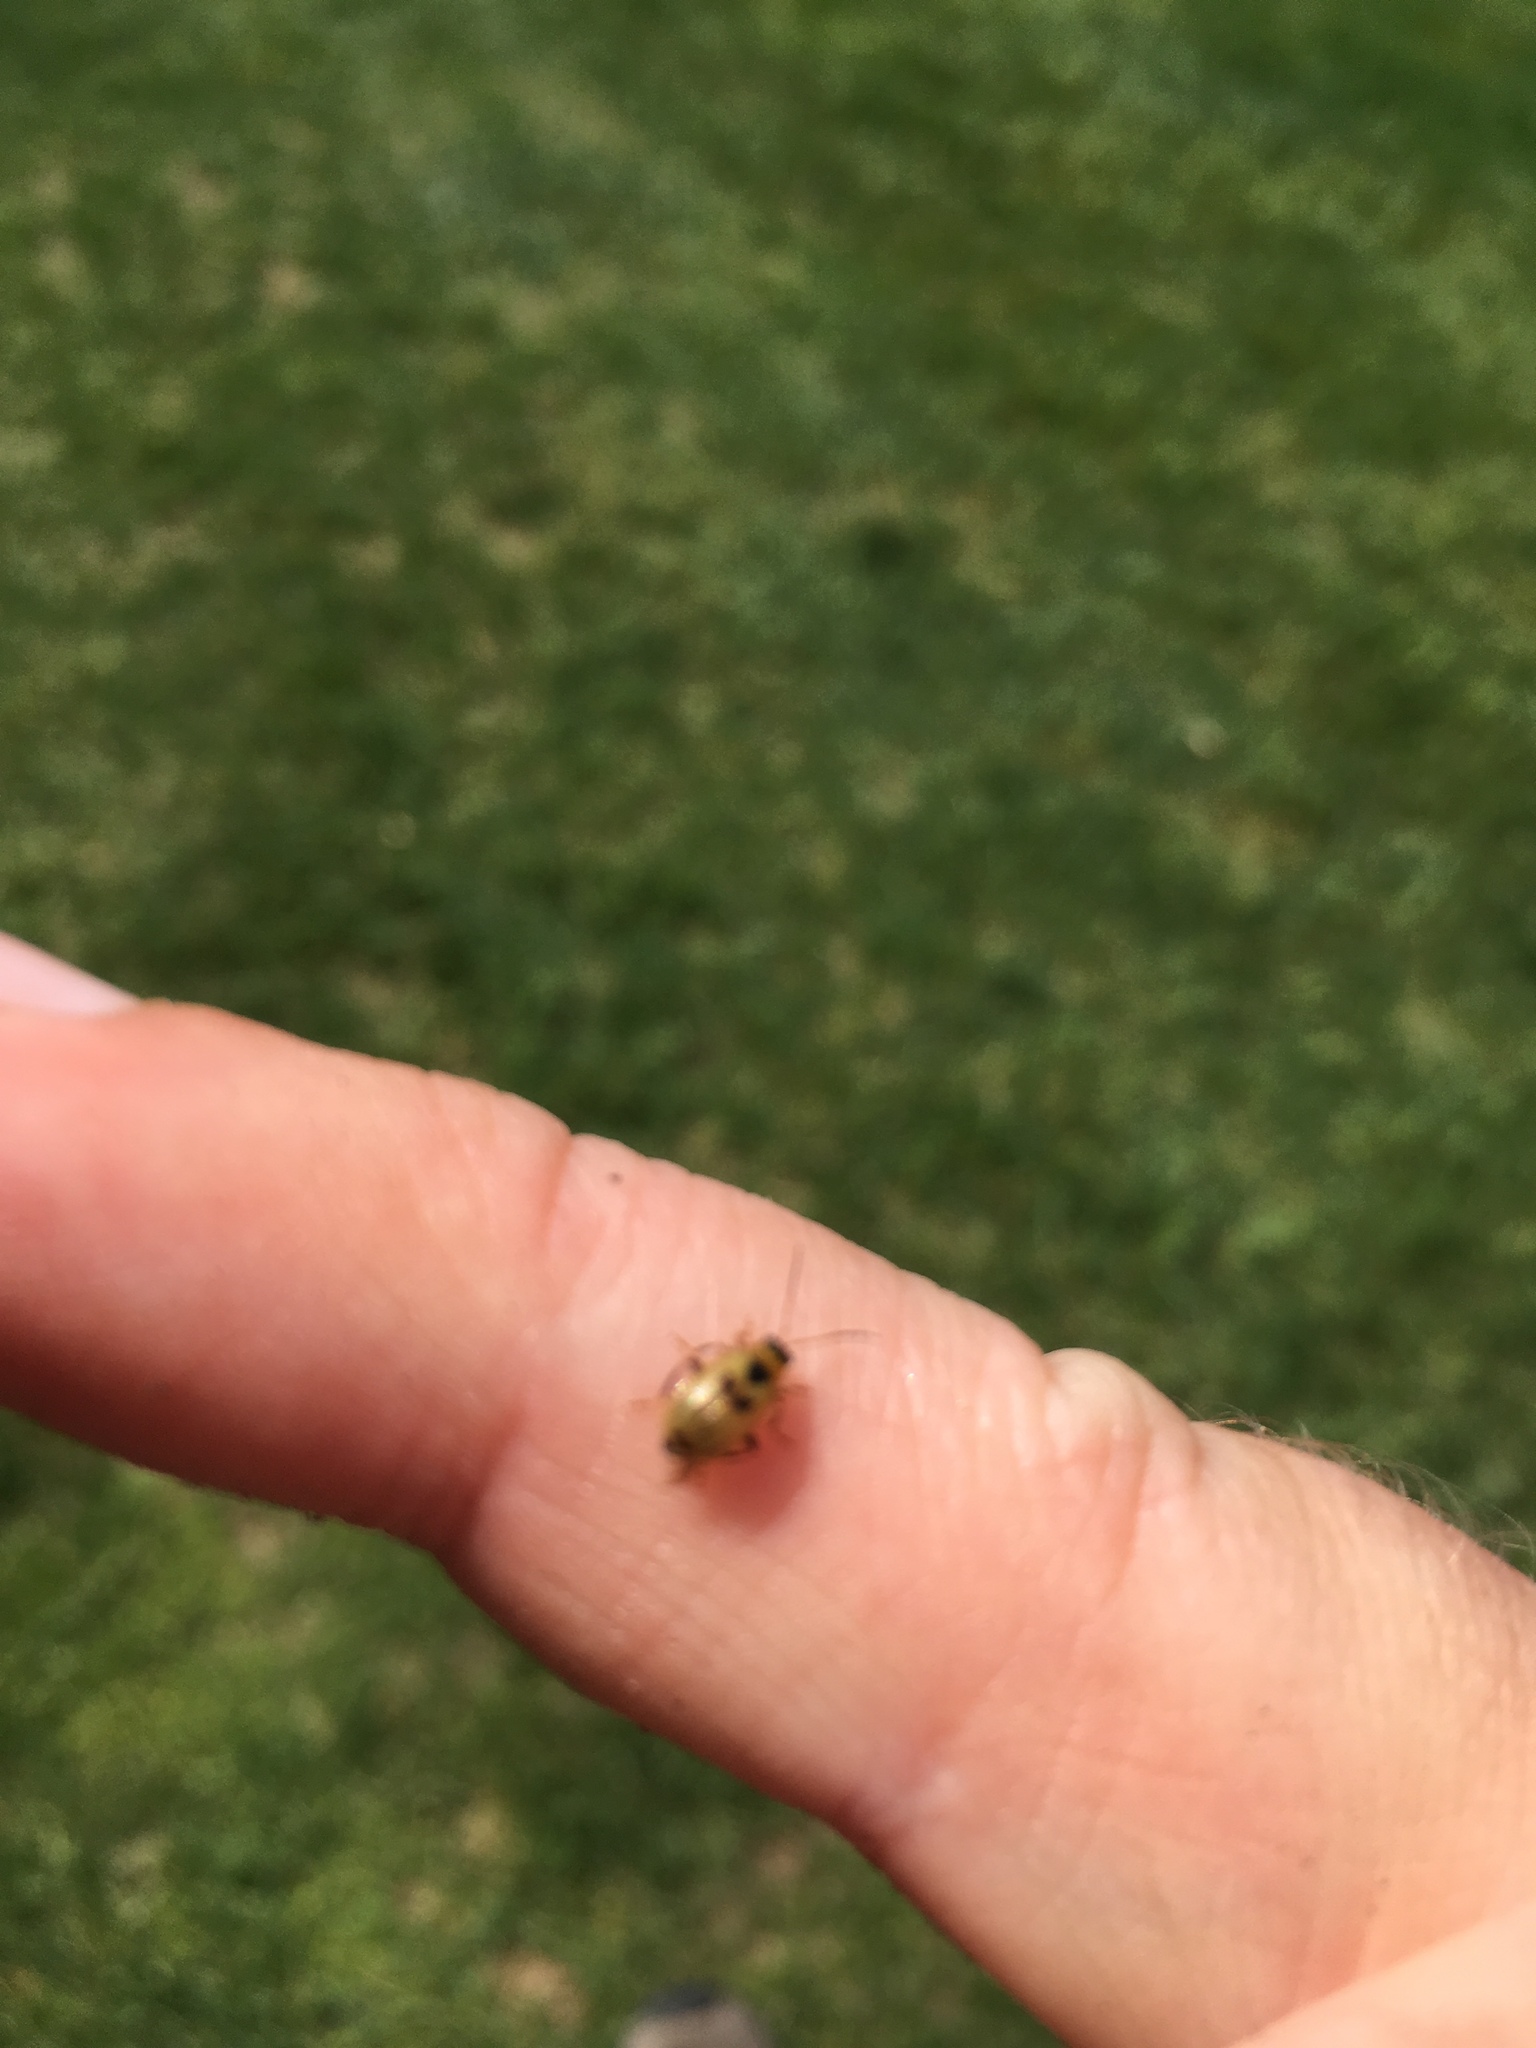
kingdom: Animalia
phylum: Arthropoda
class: Insecta
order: Coleoptera
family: Chrysomelidae
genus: Cerotoma
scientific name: Cerotoma trifurcata
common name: Bean leaf beetle
